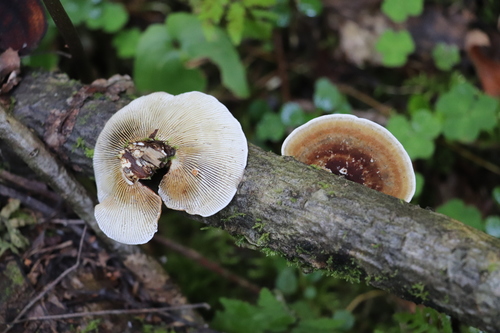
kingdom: Fungi
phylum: Basidiomycota
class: Agaricomycetes
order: Polyporales
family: Polyporaceae
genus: Daedaleopsis
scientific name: Daedaleopsis confragosa
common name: Blushing bracket
